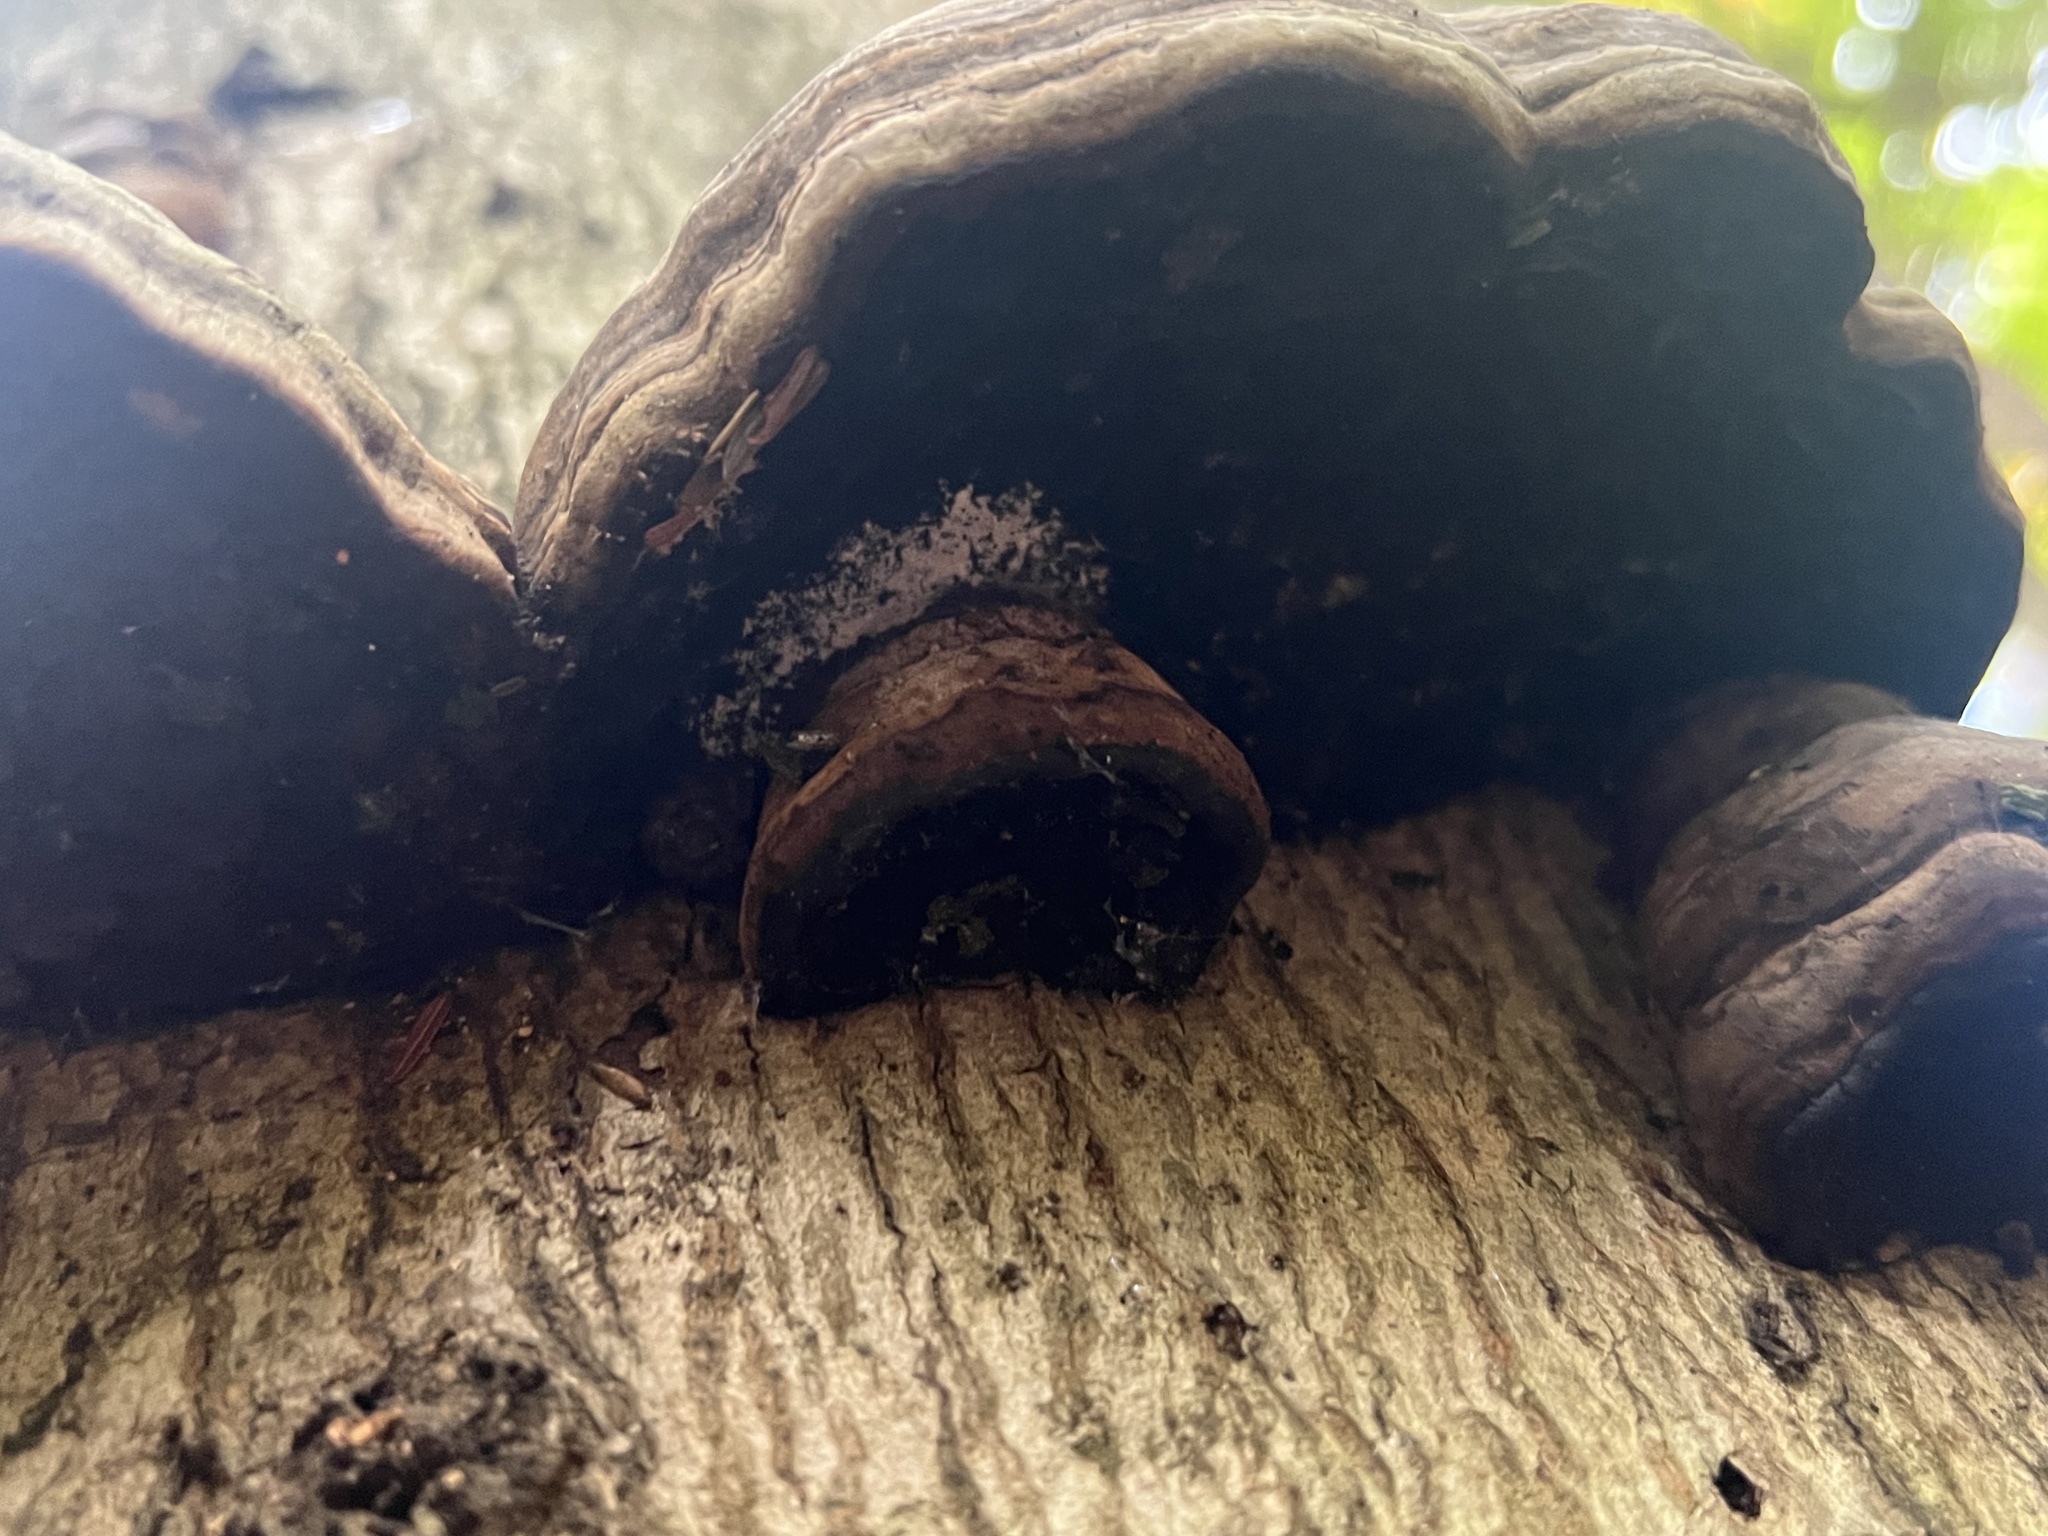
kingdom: Fungi
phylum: Basidiomycota
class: Agaricomycetes
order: Polyporales
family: Polyporaceae
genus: Fomes
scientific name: Fomes fomentarius
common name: Hoof fungus
